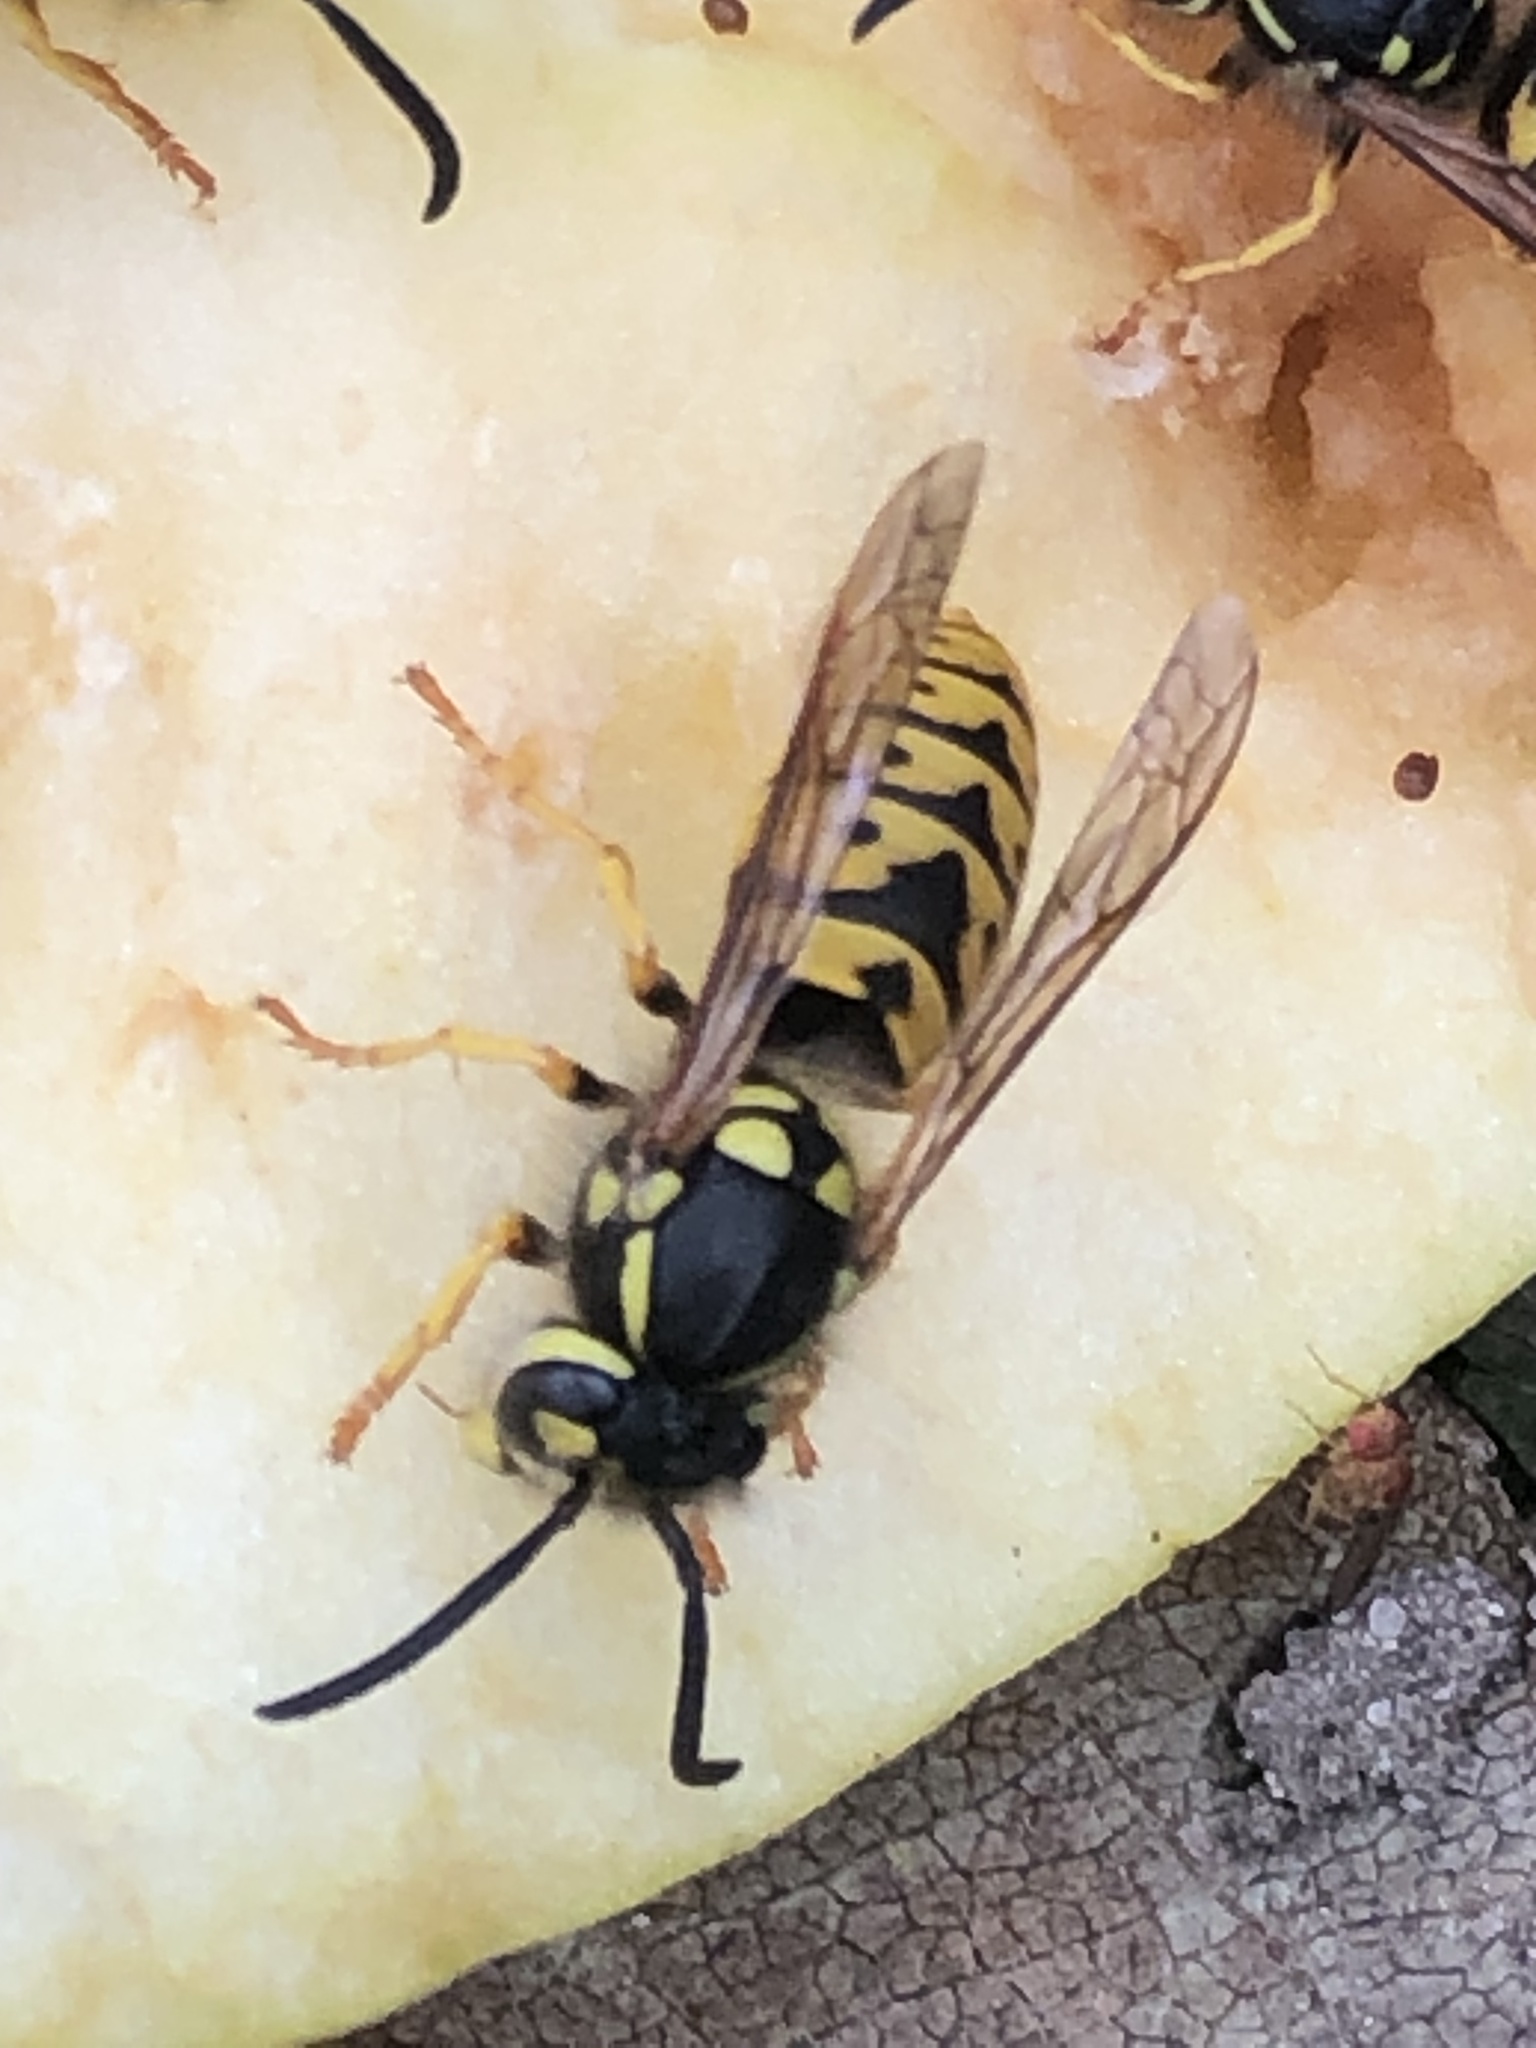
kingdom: Animalia
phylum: Arthropoda
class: Insecta
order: Hymenoptera
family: Vespidae
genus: Vespula
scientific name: Vespula germanica
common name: German wasp
